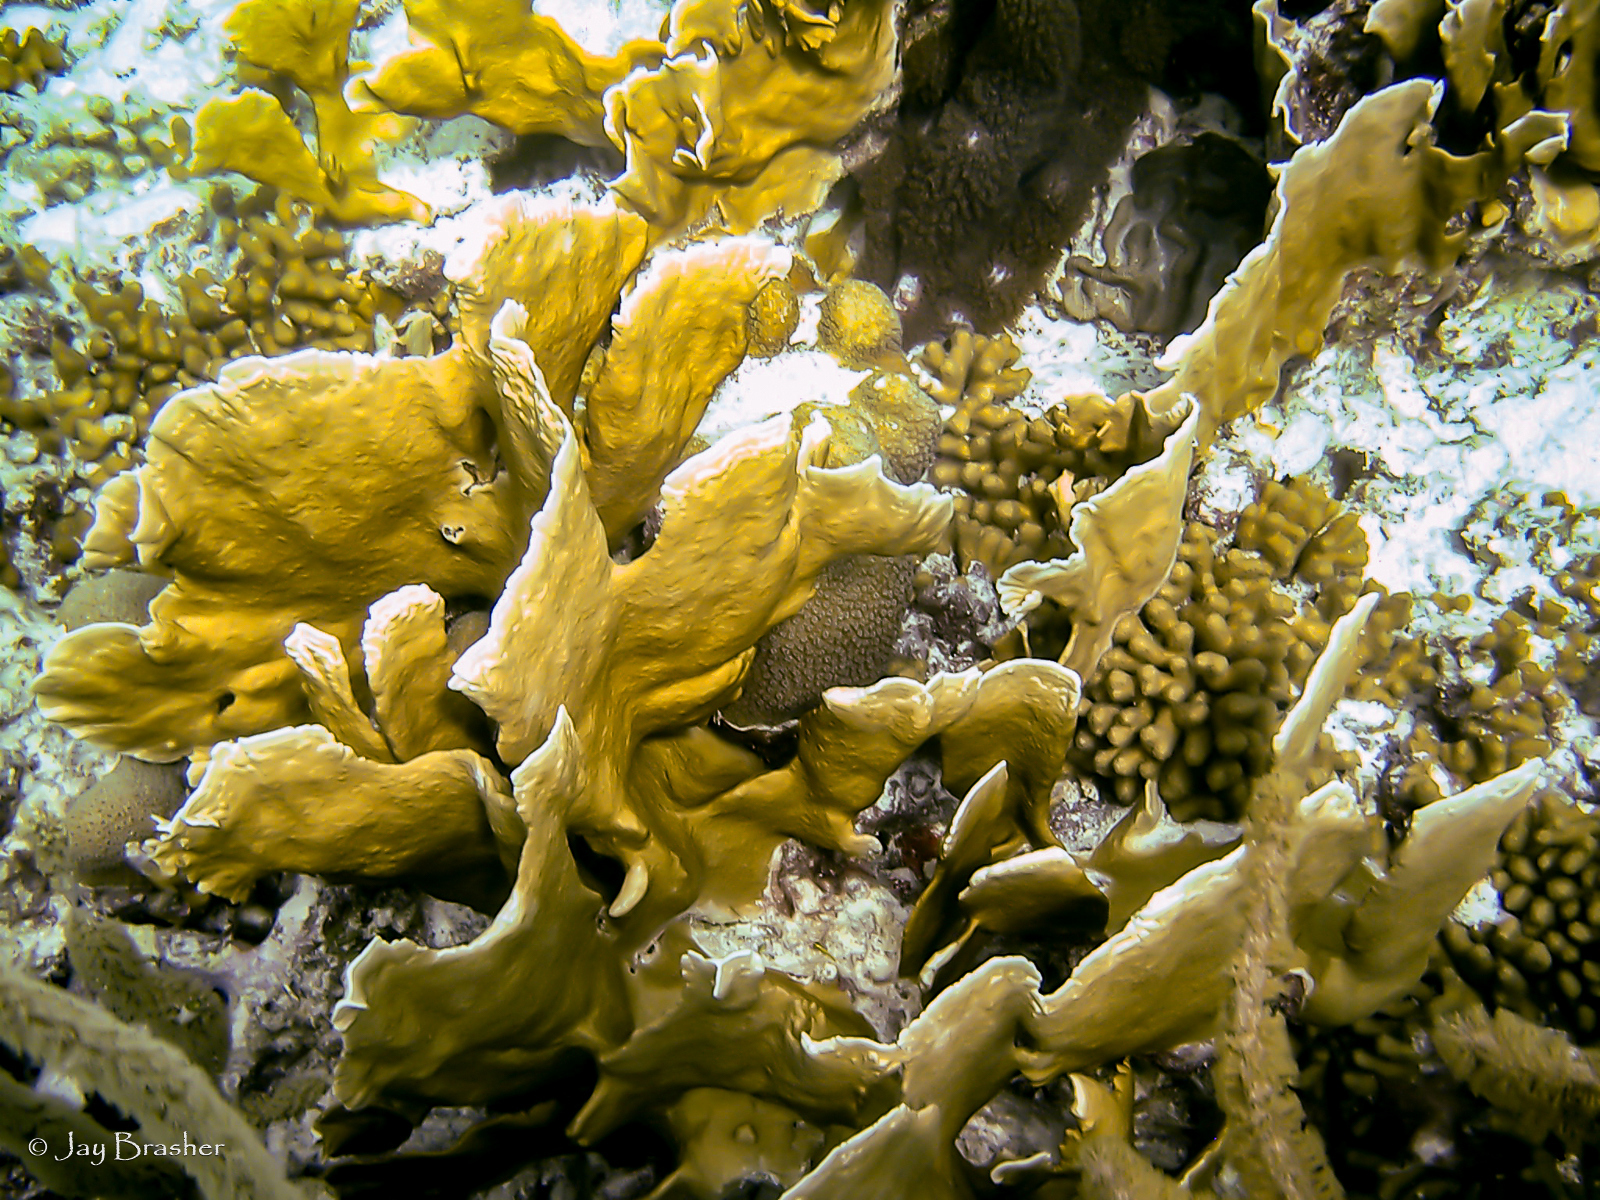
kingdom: Animalia
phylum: Cnidaria
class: Hydrozoa
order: Anthoathecata
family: Milleporidae
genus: Millepora
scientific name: Millepora complanata
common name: Bladed fire coral
